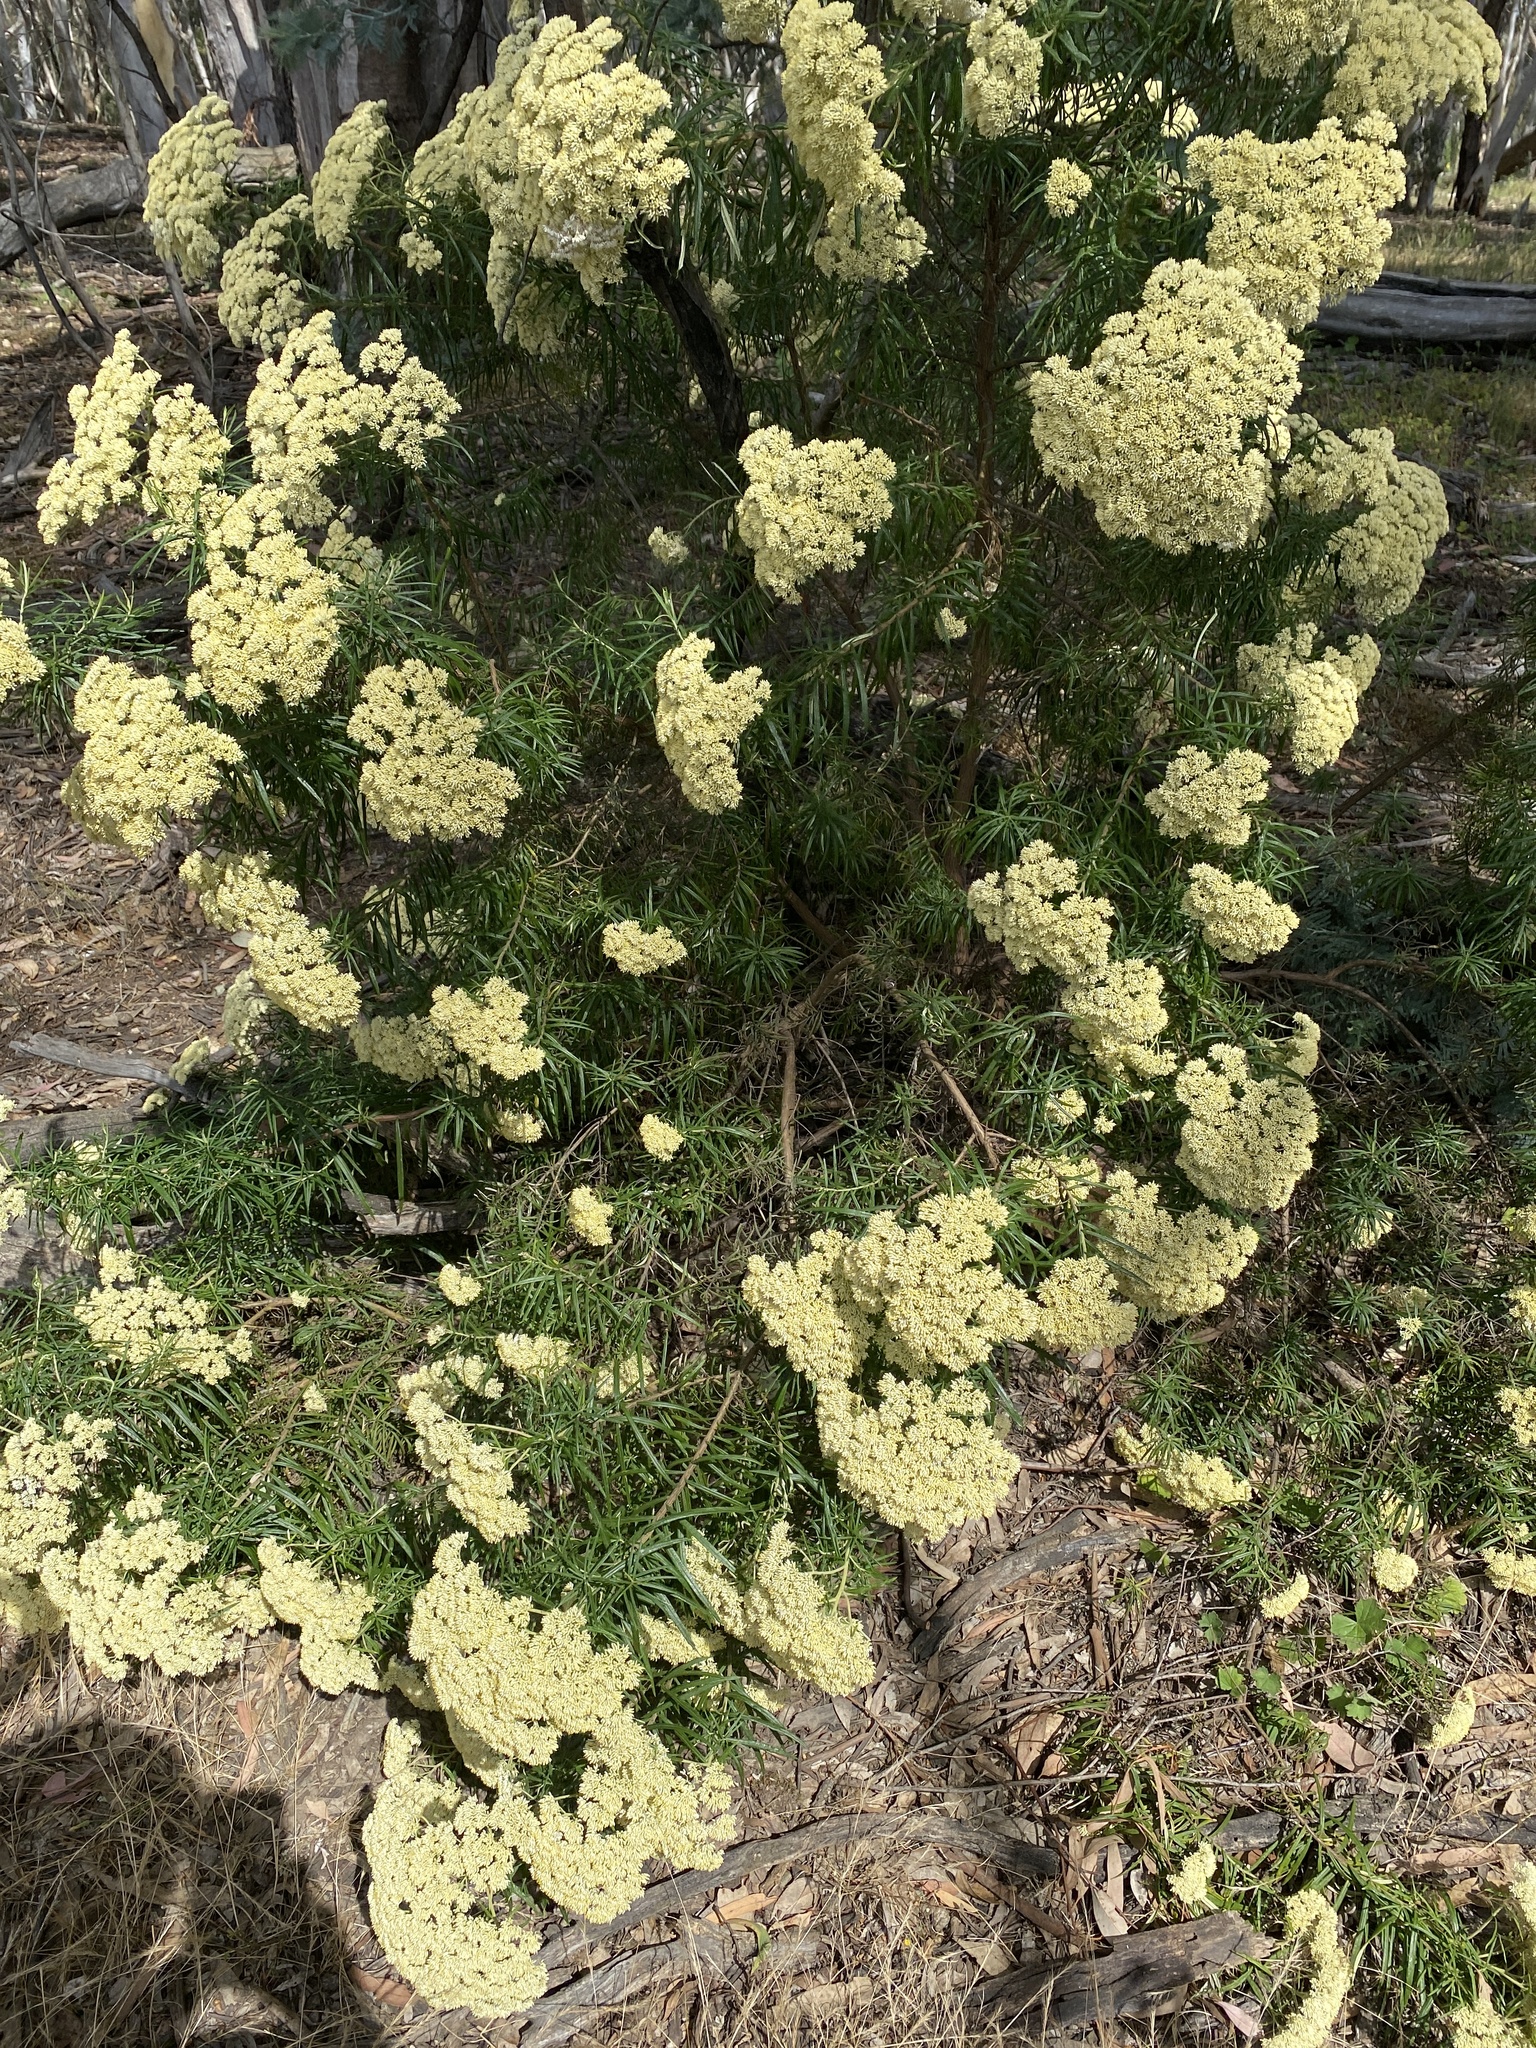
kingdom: Plantae
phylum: Tracheophyta
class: Magnoliopsida
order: Asterales
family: Asteraceae
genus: Cassinia
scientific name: Cassinia longifolia
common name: Longleaf-dogwood
